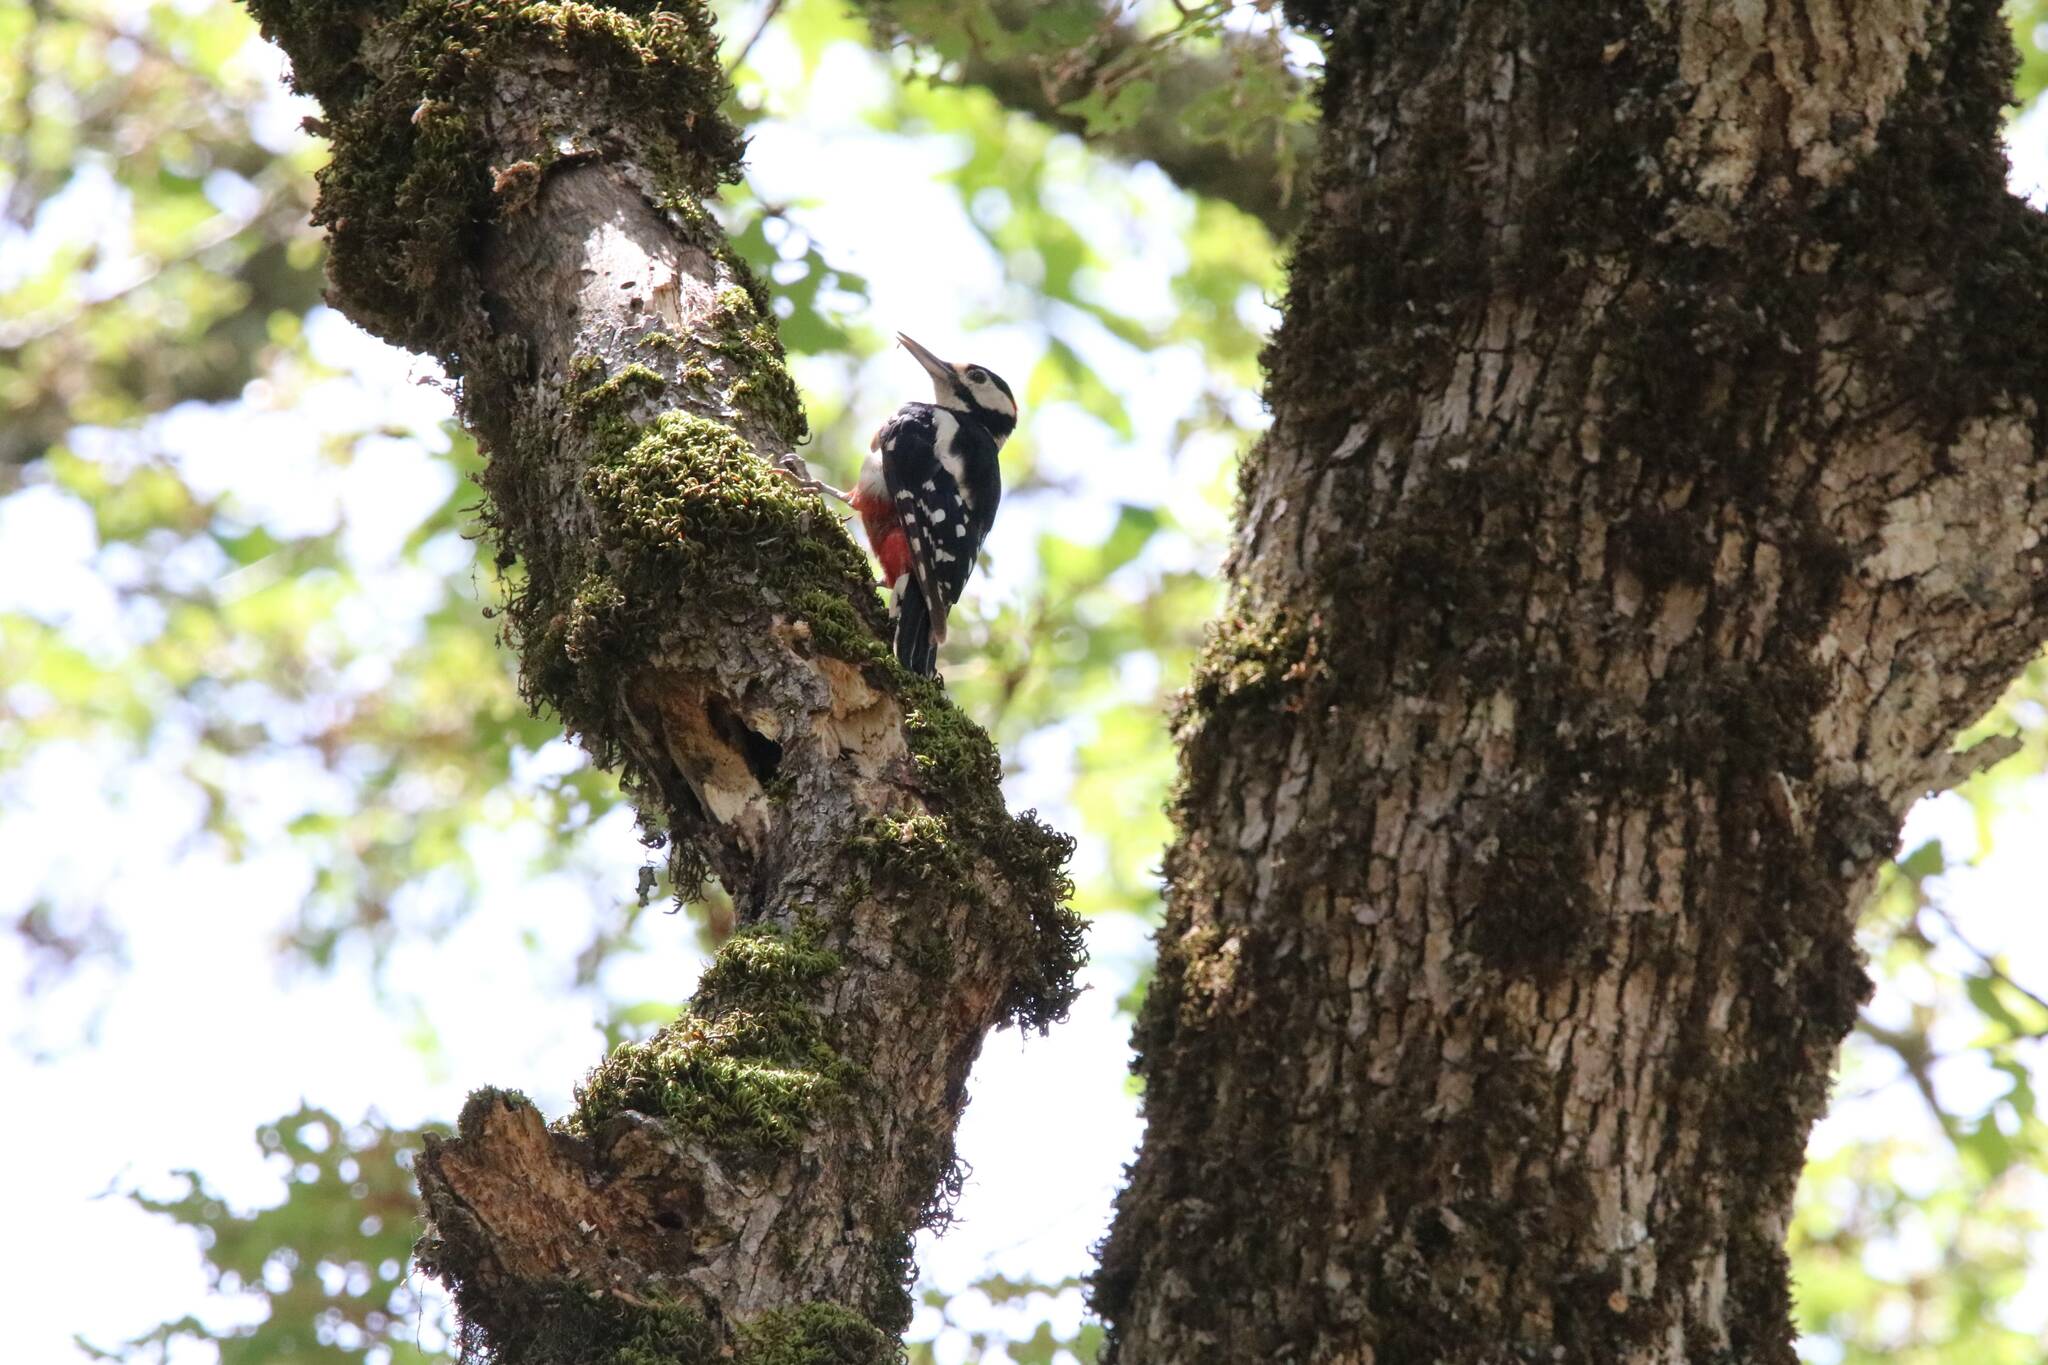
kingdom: Animalia
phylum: Chordata
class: Aves
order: Piciformes
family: Picidae
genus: Dendrocopos
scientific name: Dendrocopos major
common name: Great spotted woodpecker
